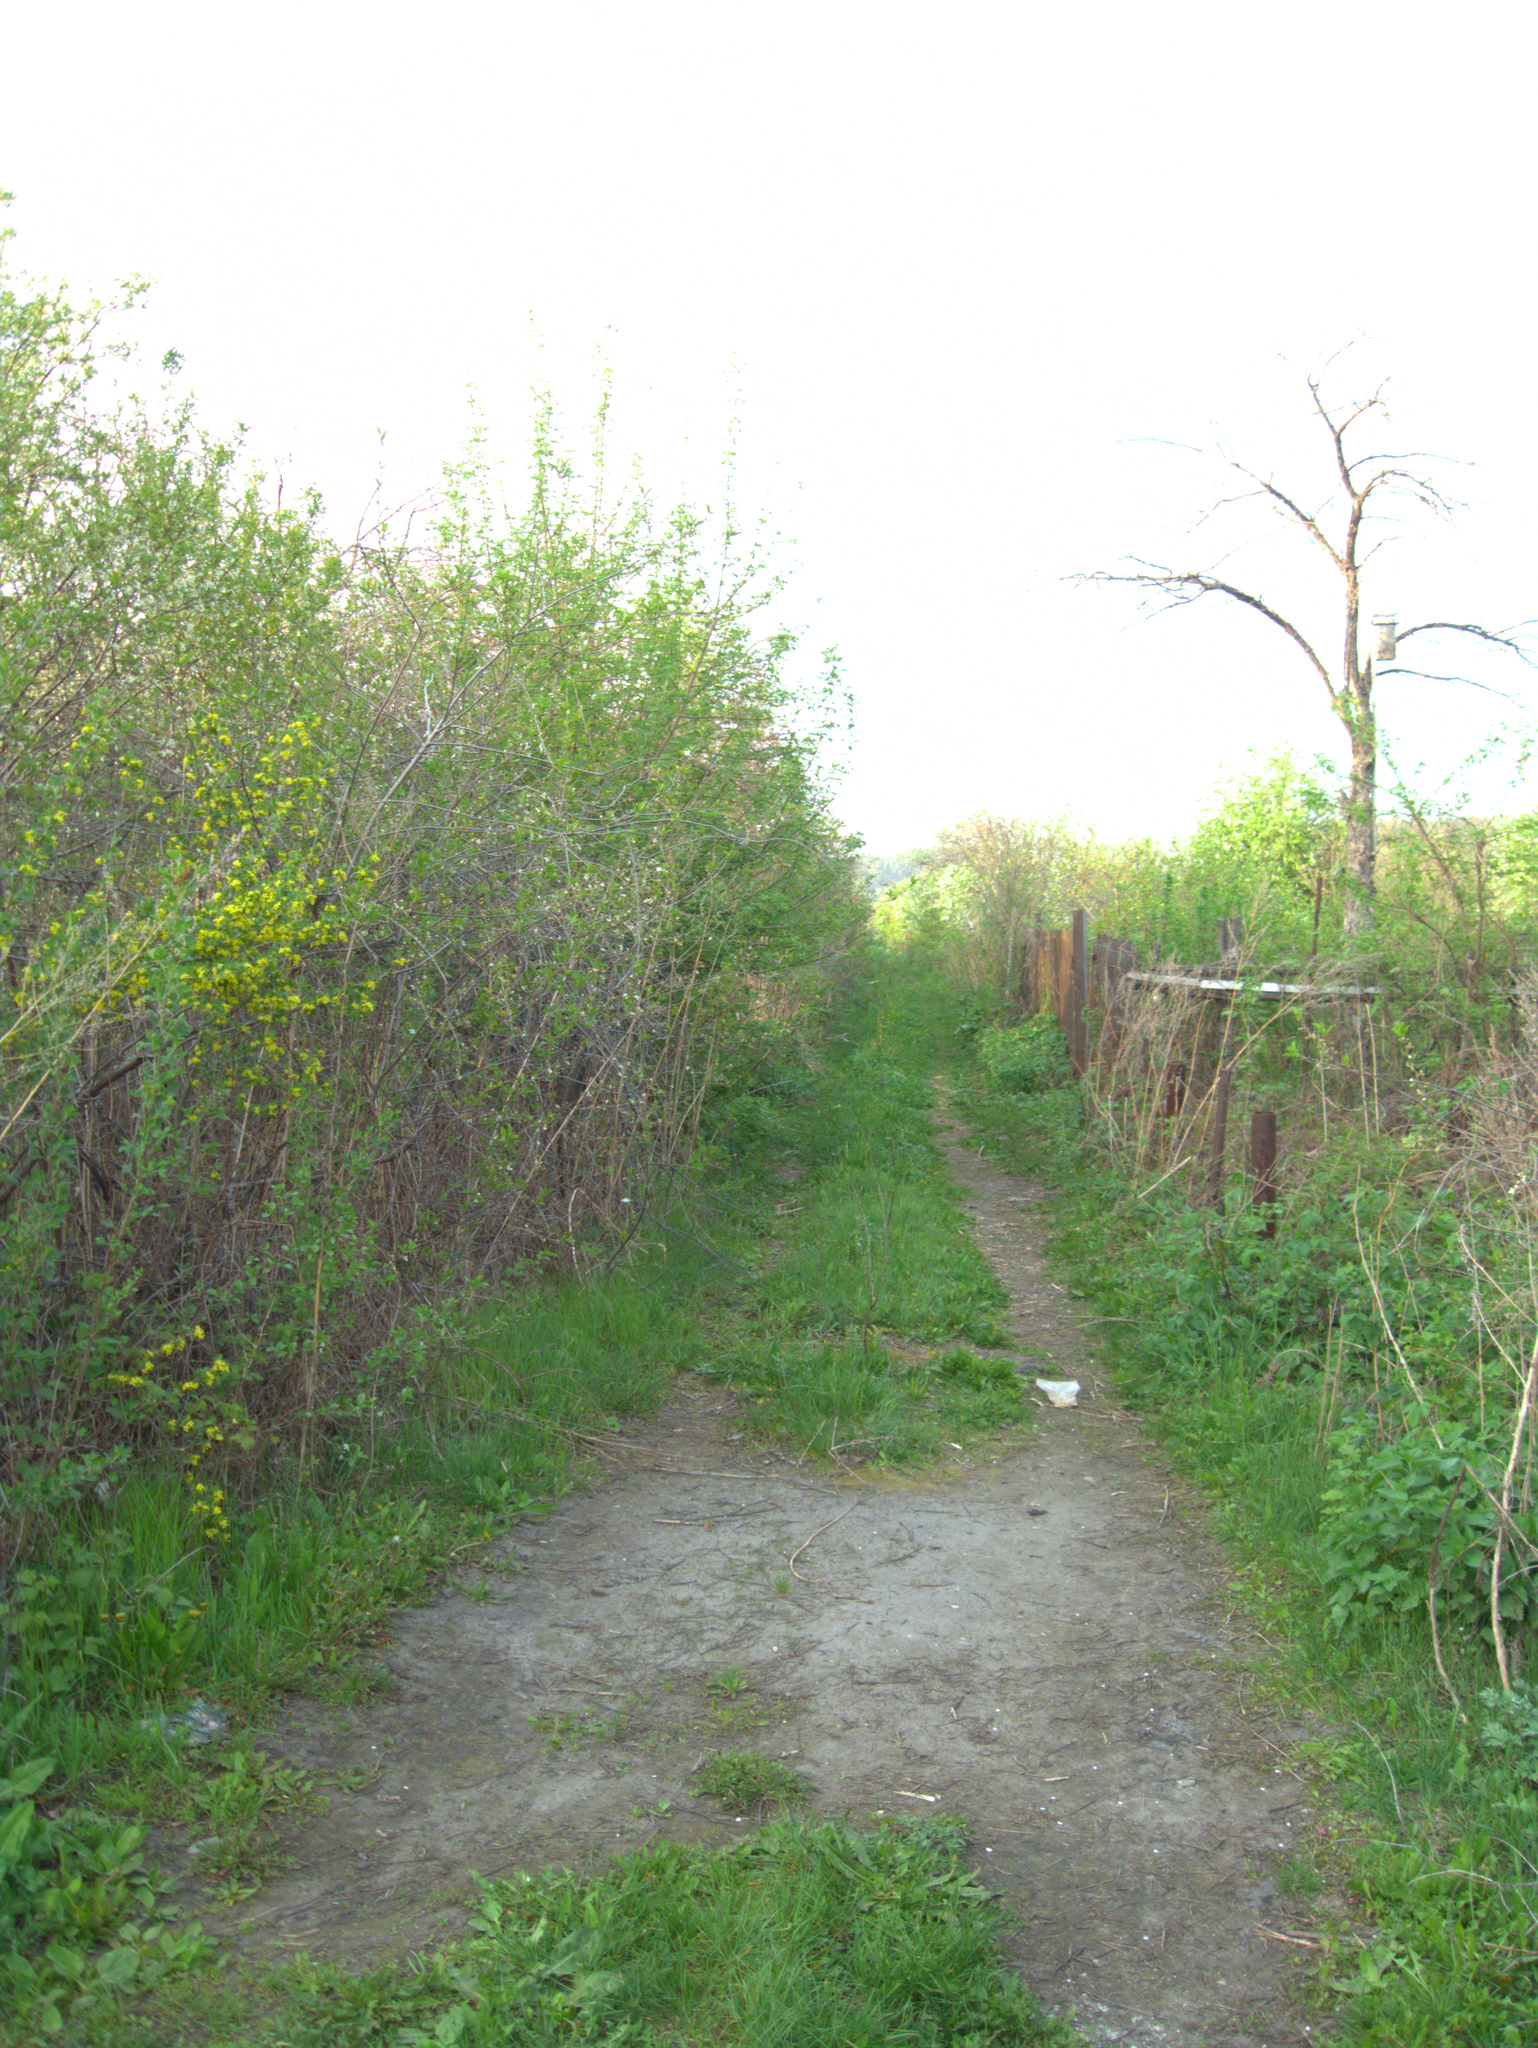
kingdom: Plantae
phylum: Tracheophyta
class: Magnoliopsida
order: Saxifragales
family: Grossulariaceae
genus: Ribes
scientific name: Ribes aureum
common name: Golden currant
